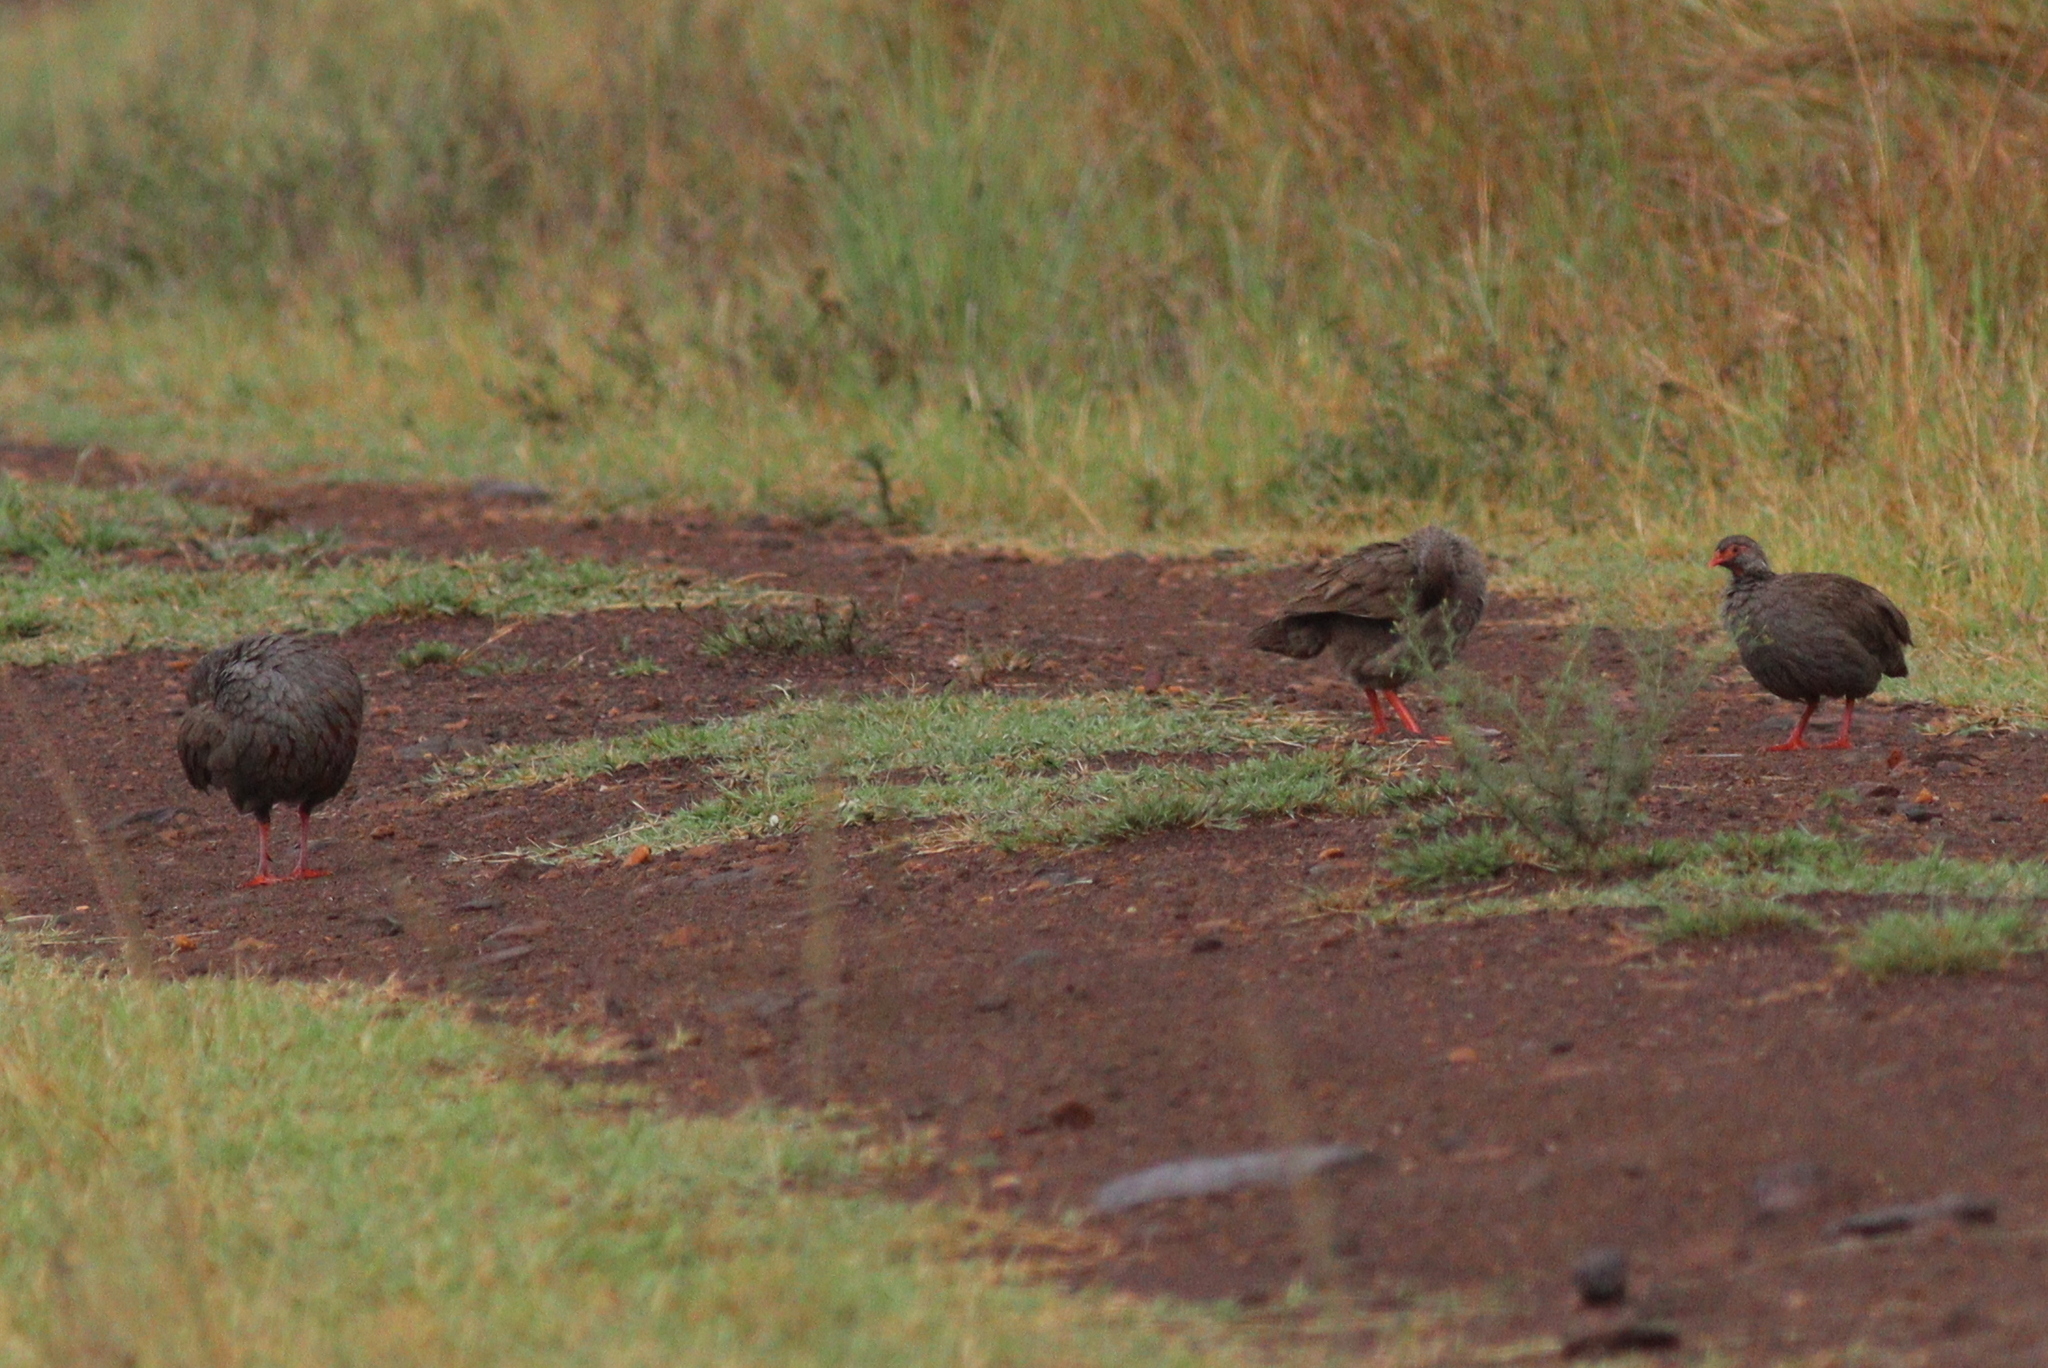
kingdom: Animalia
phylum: Chordata
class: Aves
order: Galliformes
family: Phasianidae
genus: Pternistis
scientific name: Pternistis afer
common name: Red-necked spurfowl
